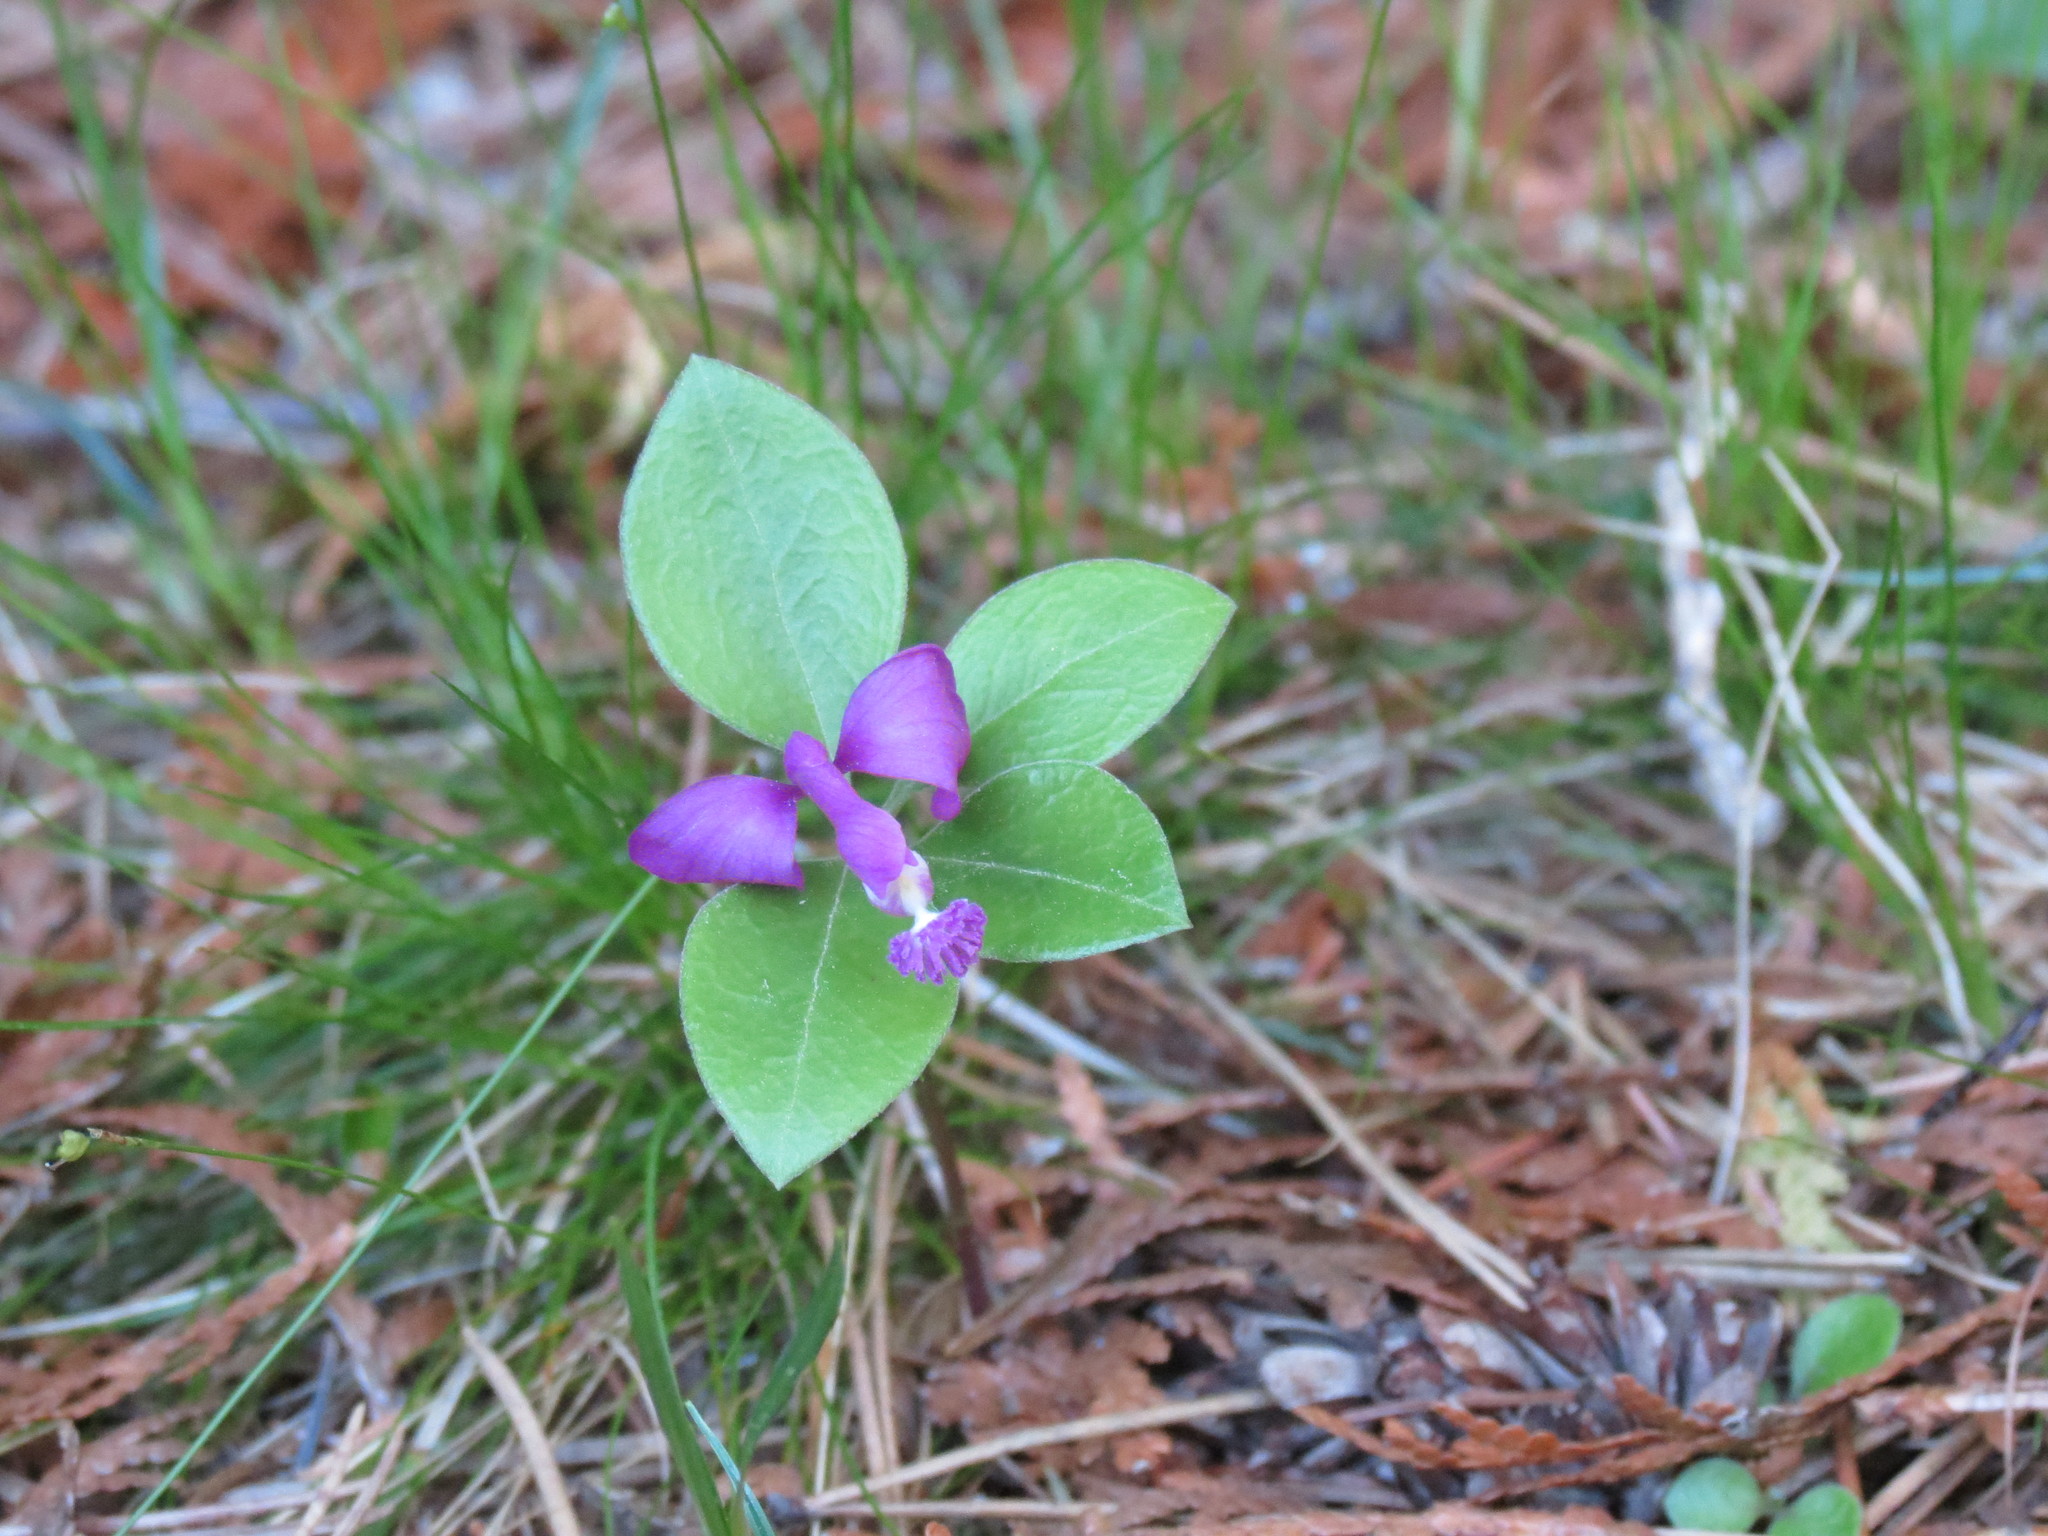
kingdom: Plantae
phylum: Tracheophyta
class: Magnoliopsida
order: Fabales
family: Polygalaceae
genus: Polygaloides
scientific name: Polygaloides paucifolia
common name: Bird-on-the-wing
